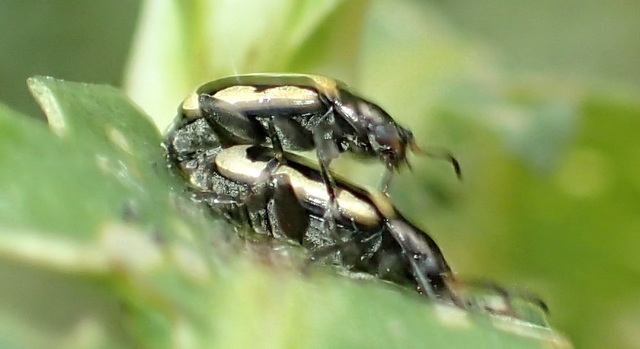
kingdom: Animalia
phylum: Arthropoda
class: Insecta
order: Coleoptera
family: Chrysomelidae
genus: Agasicles
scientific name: Agasicles hygrophila
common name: Alligatorweed flea beetle
